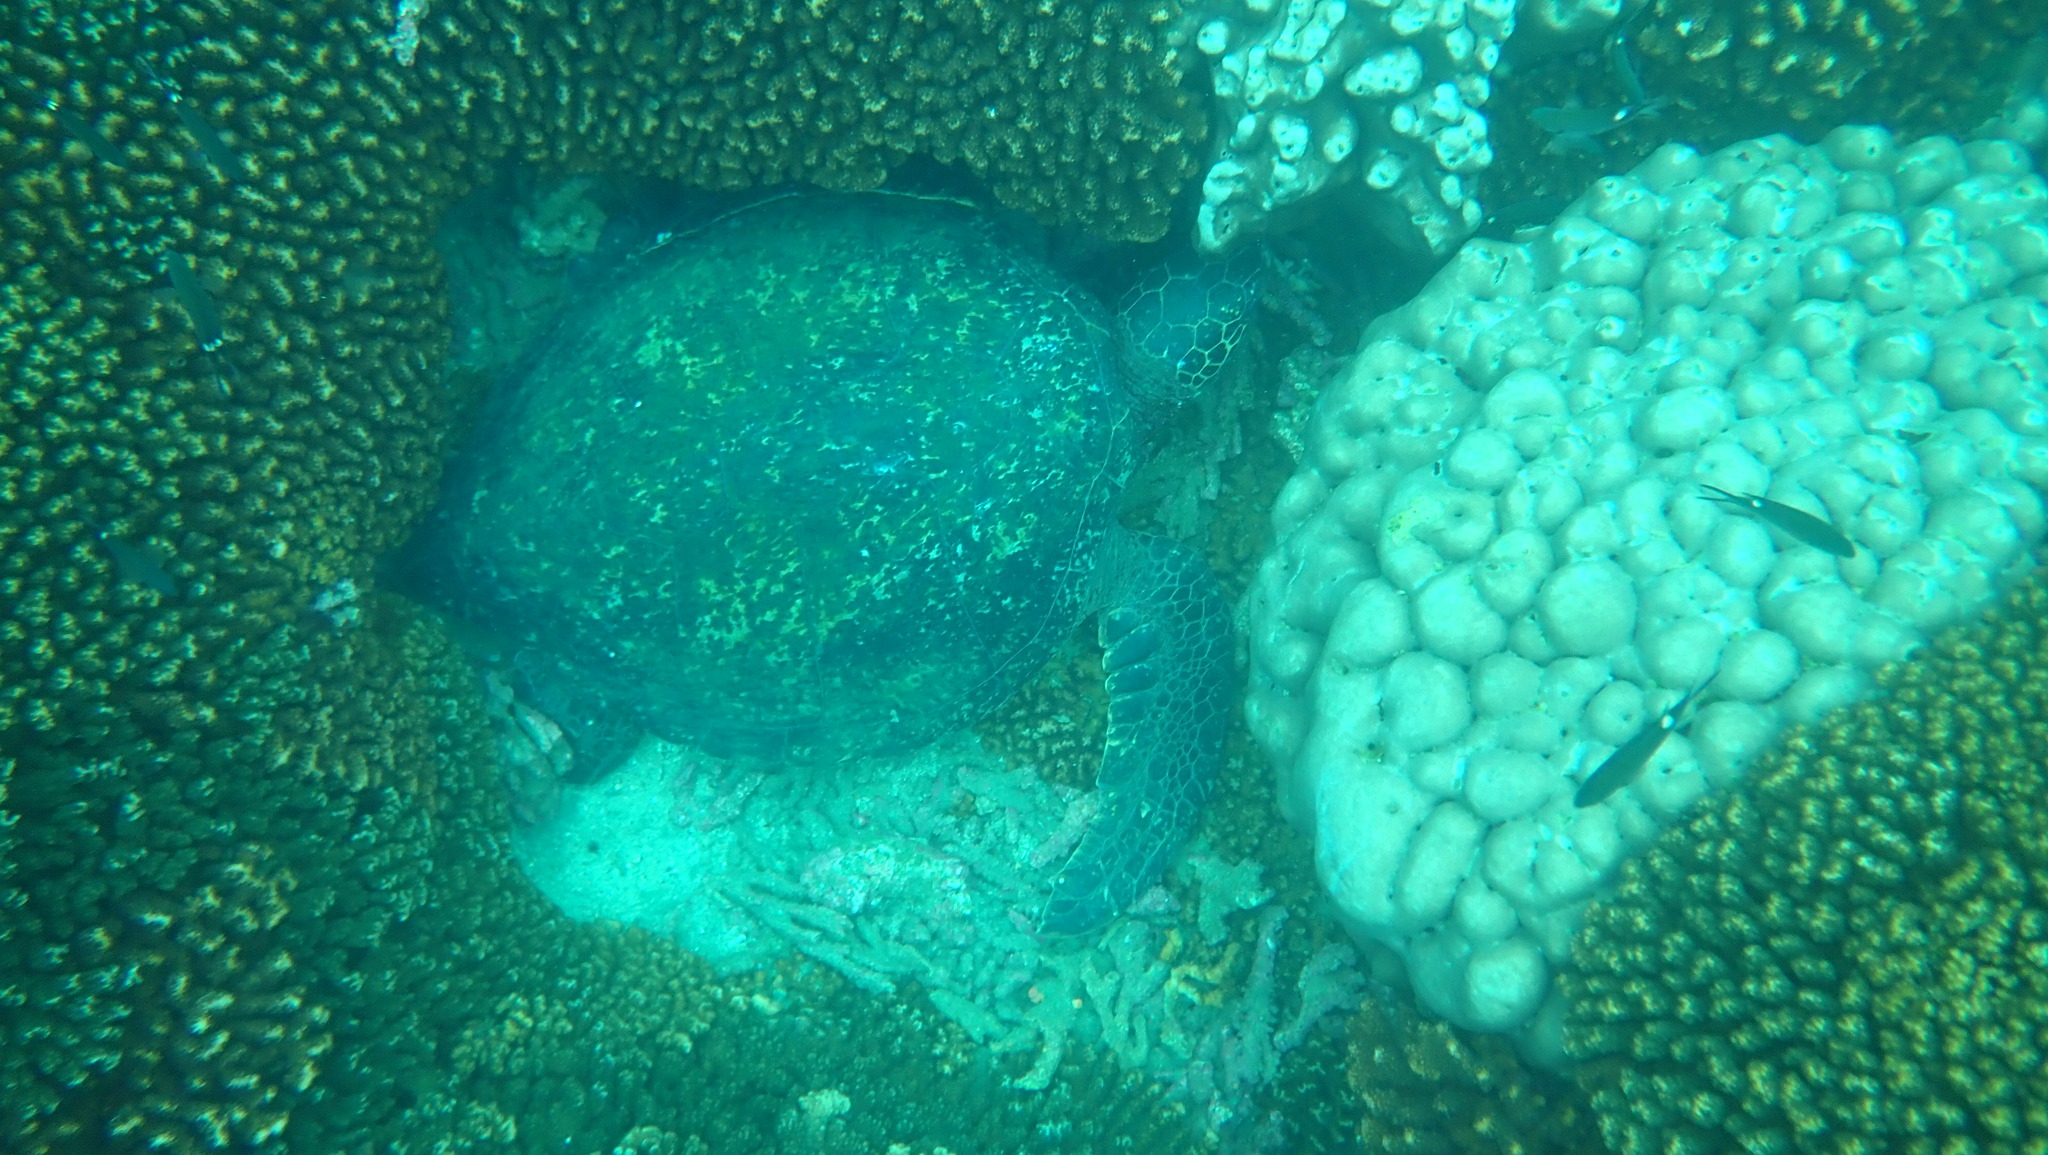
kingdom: Animalia
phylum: Chordata
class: Testudines
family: Cheloniidae
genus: Chelonia
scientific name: Chelonia mydas
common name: Green turtle
